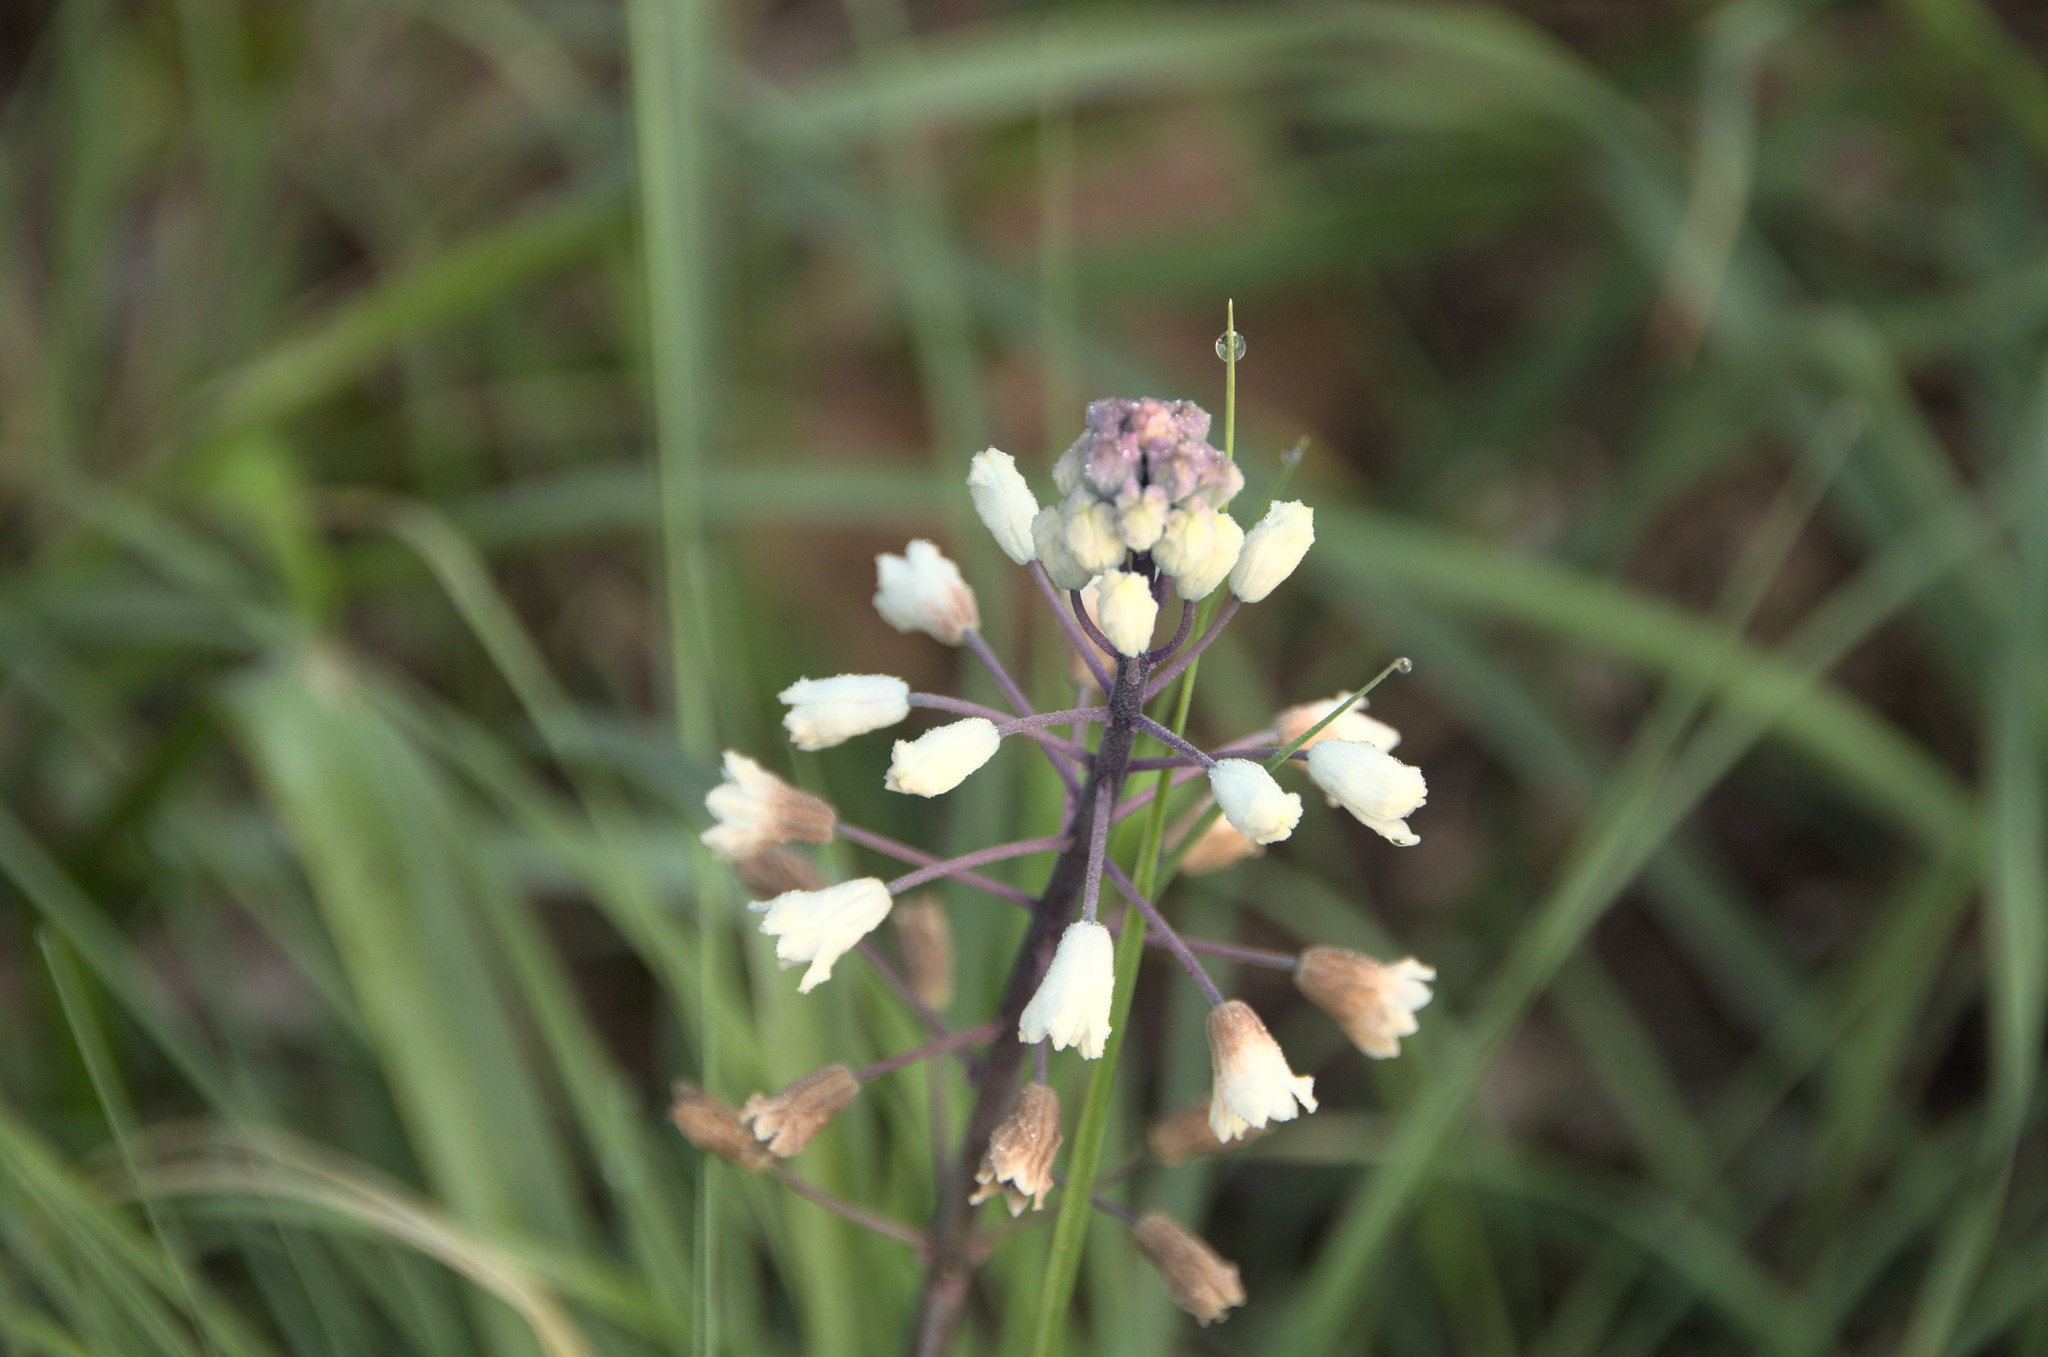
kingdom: Plantae
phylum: Tracheophyta
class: Liliopsida
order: Asparagales
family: Asparagaceae
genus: Bellevalia
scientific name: Bellevalia romana
